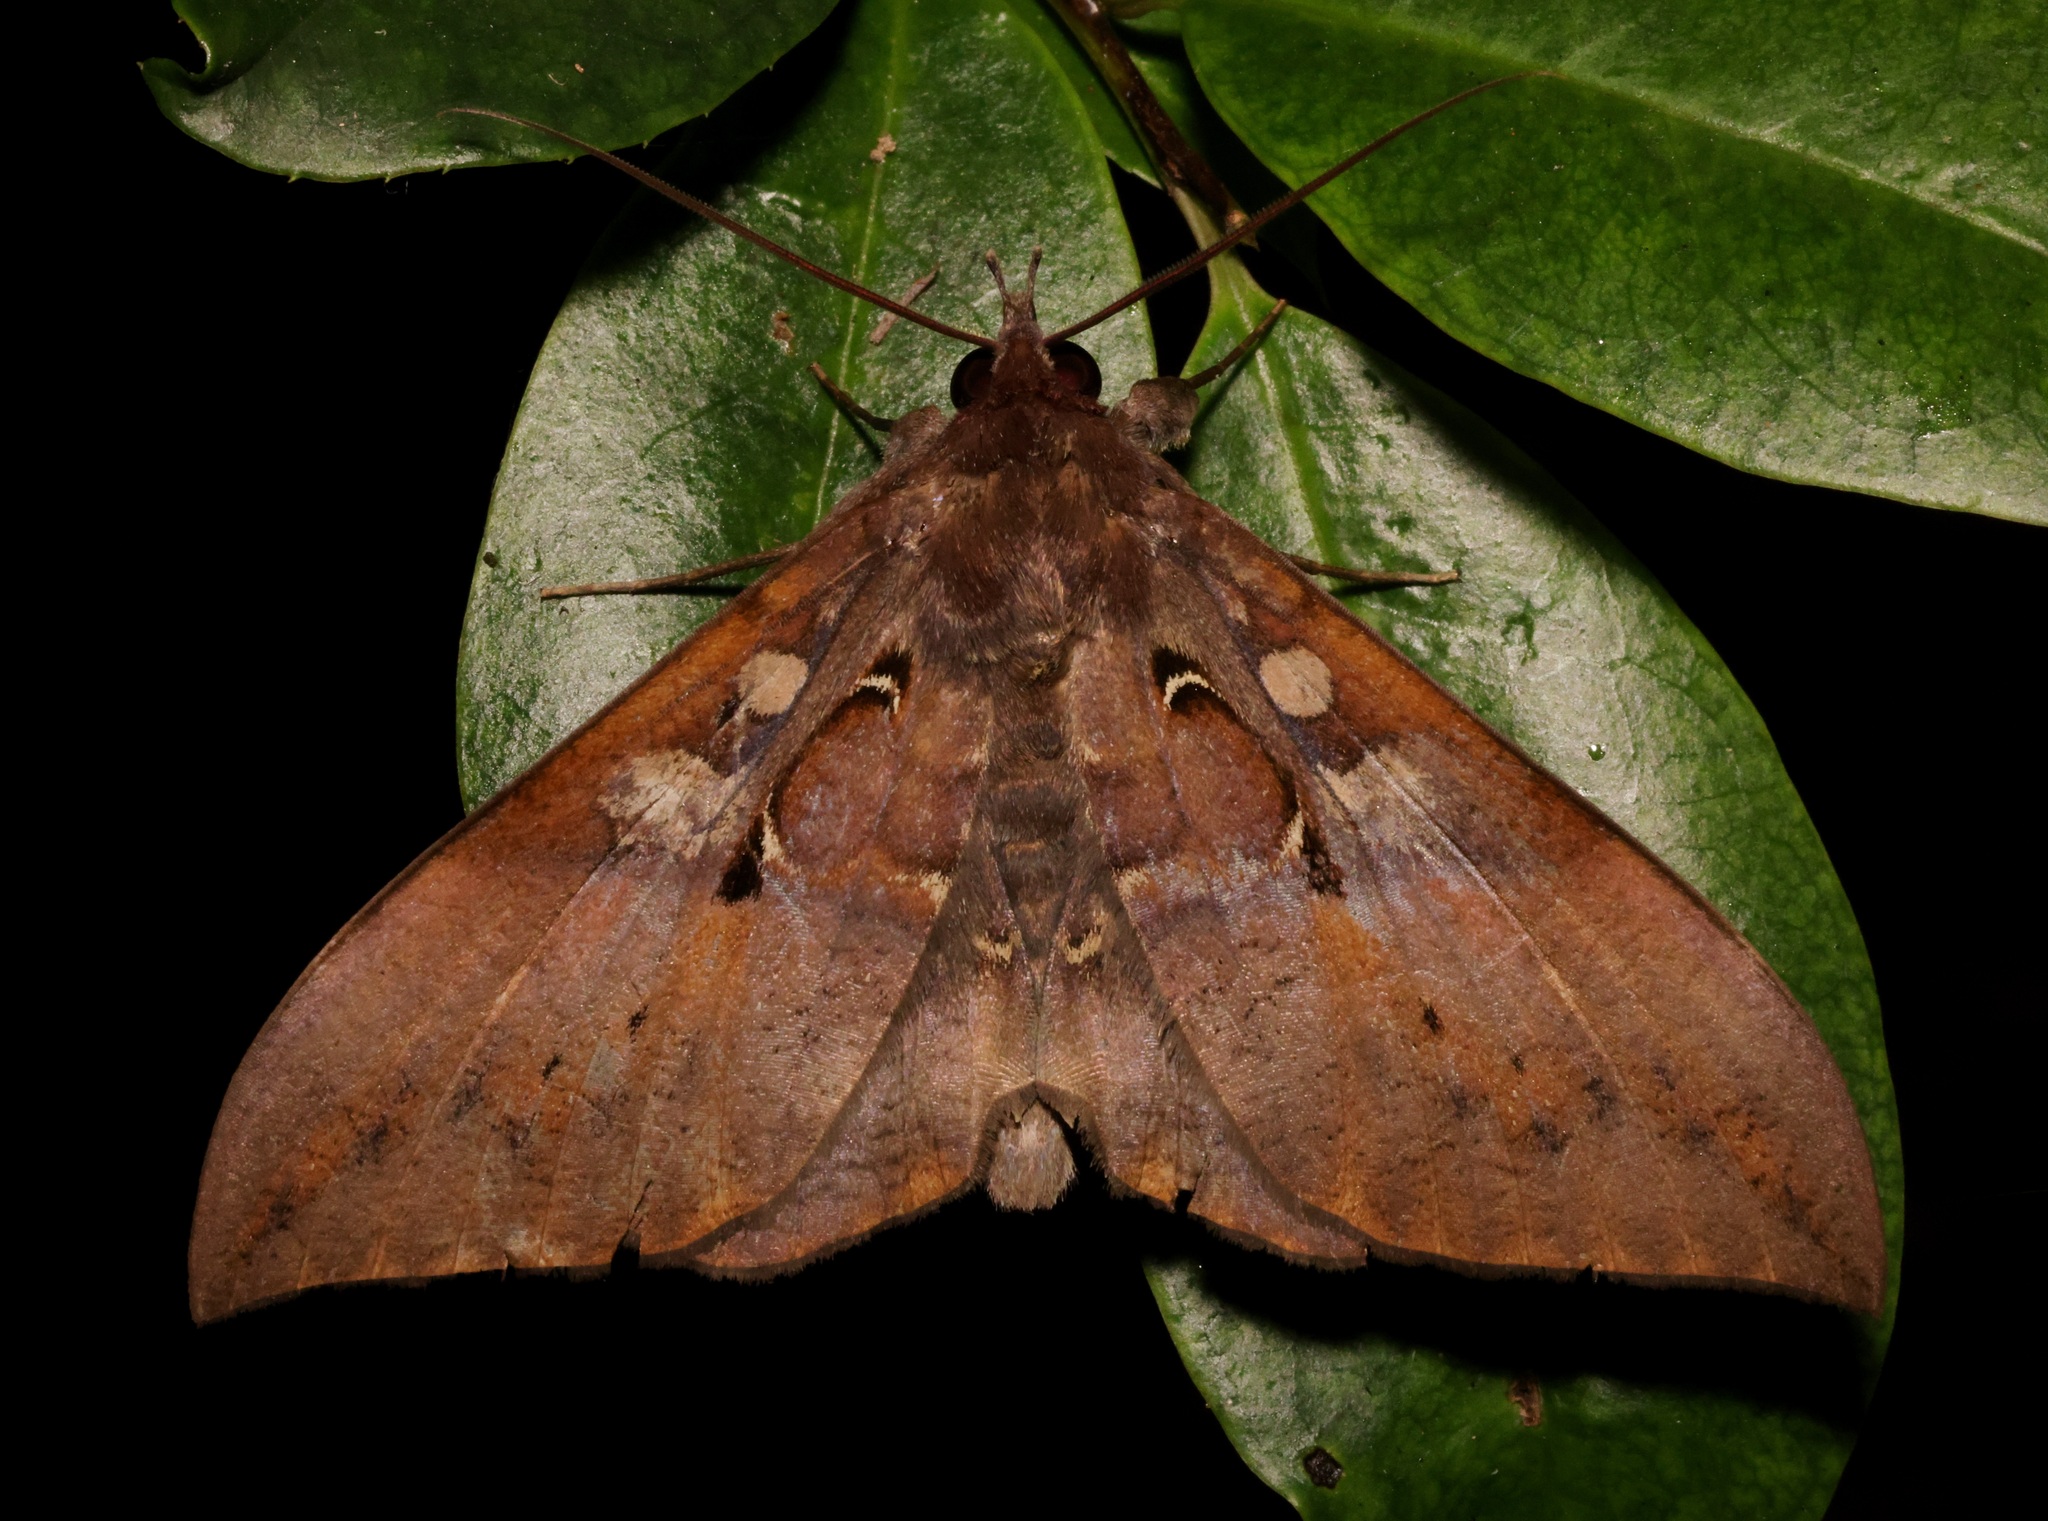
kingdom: Animalia
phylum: Arthropoda
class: Insecta
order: Lepidoptera
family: Erebidae
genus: Ischyja
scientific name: Ischyja manlia
